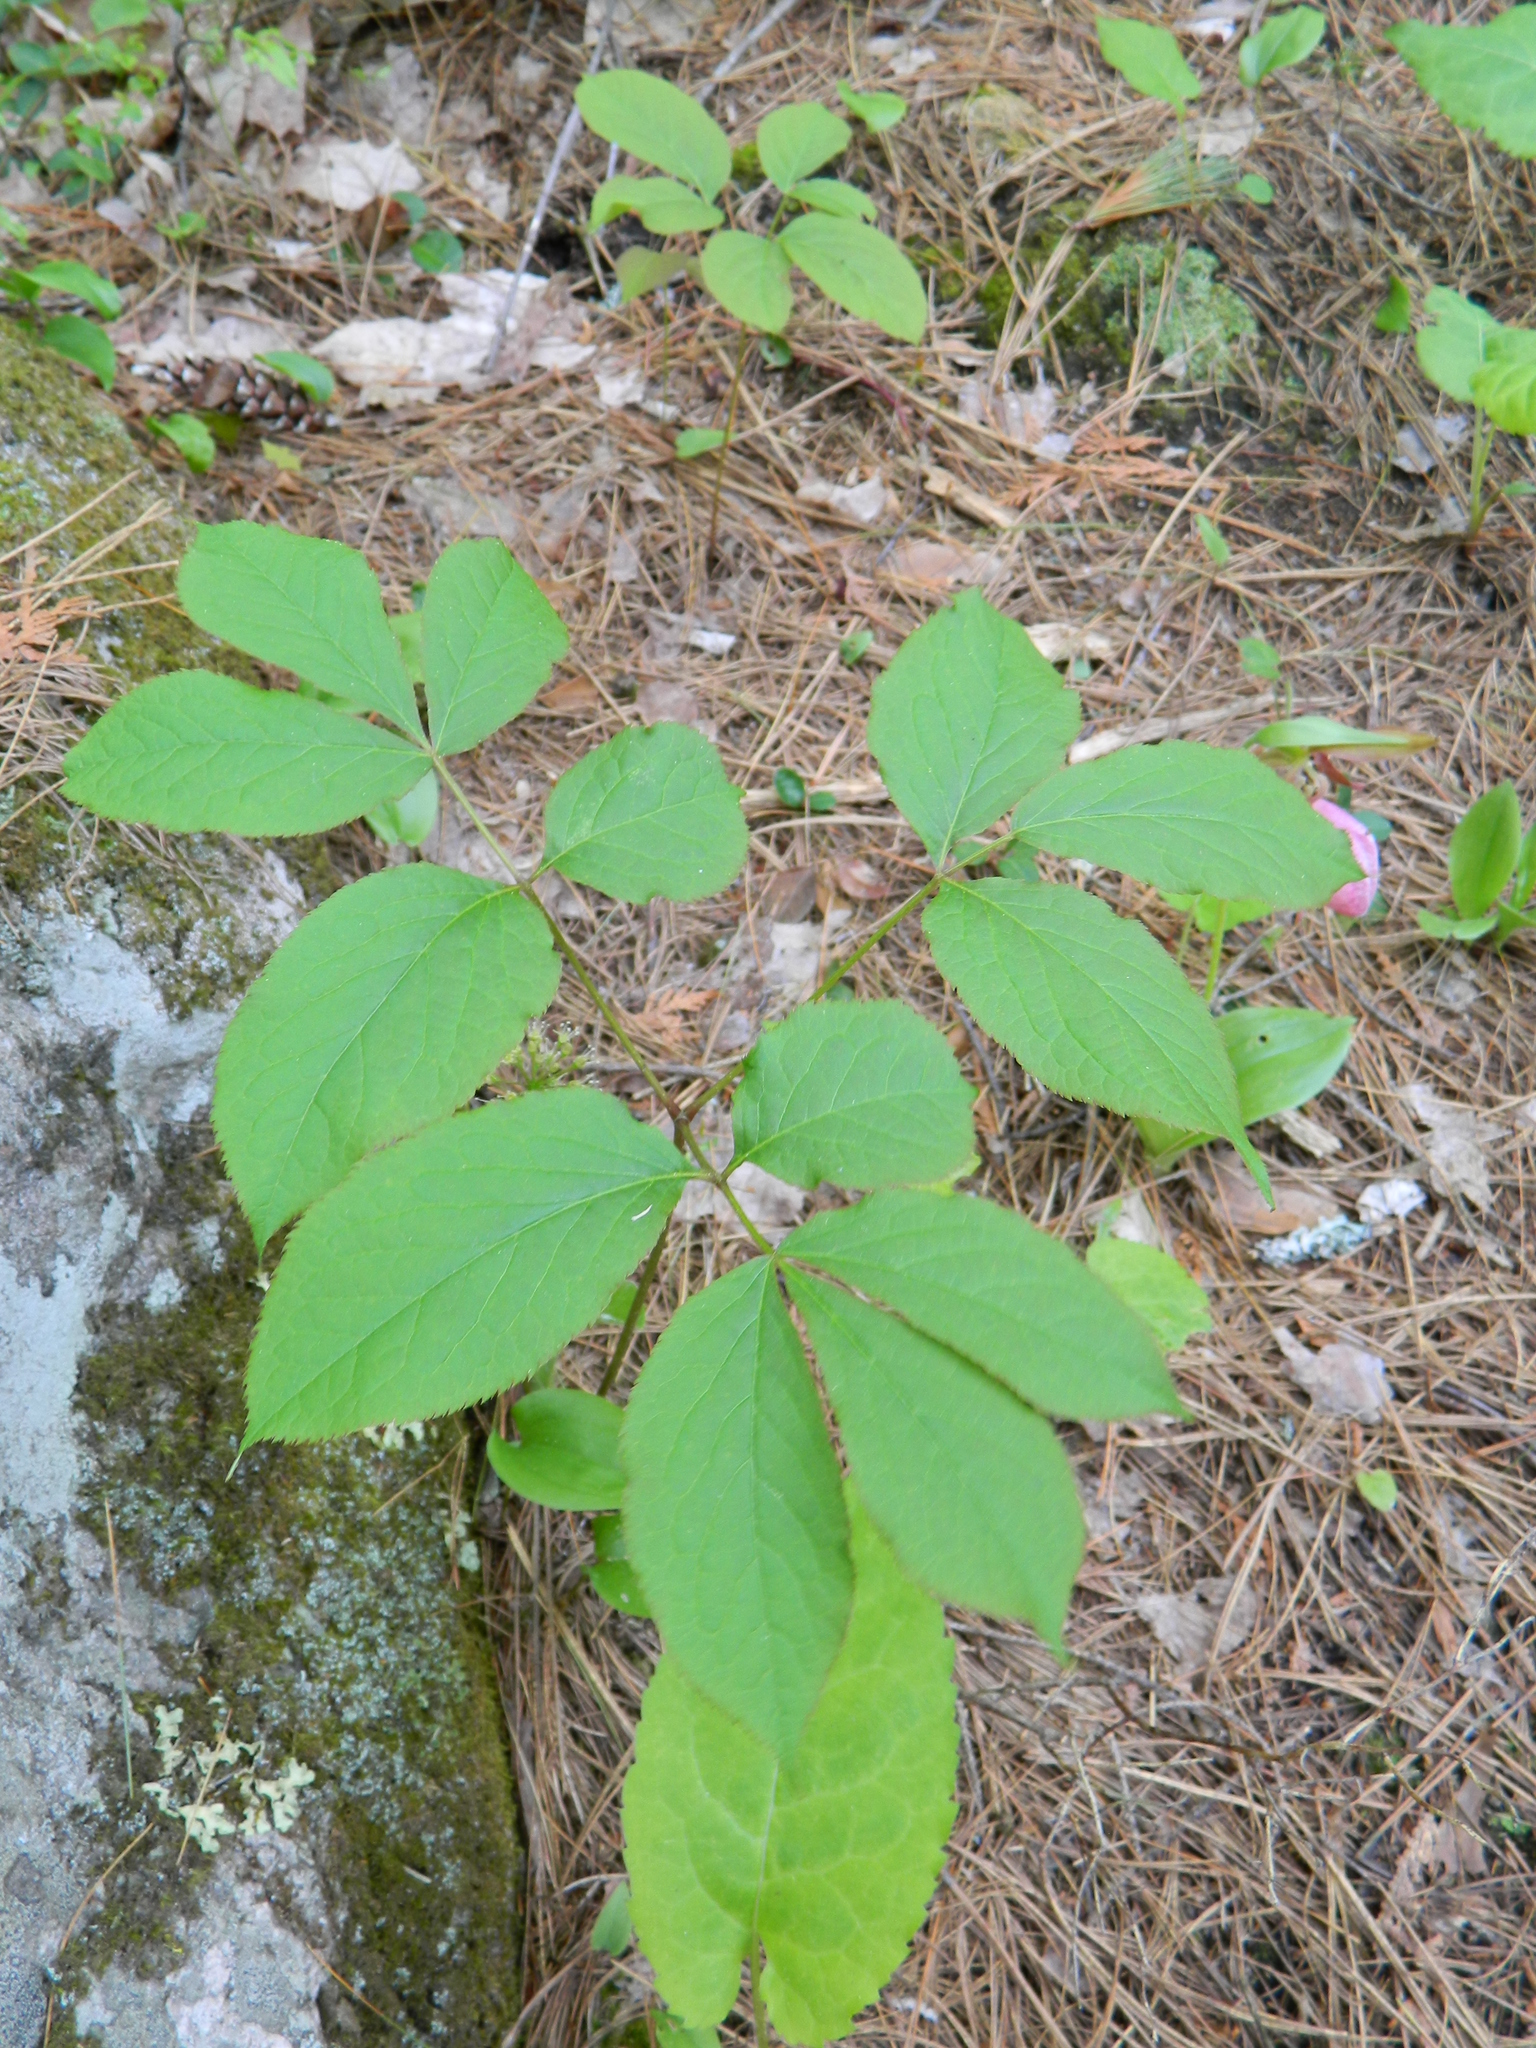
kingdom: Plantae
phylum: Tracheophyta
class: Magnoliopsida
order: Apiales
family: Araliaceae
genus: Aralia
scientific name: Aralia nudicaulis
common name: Wild sarsaparilla
